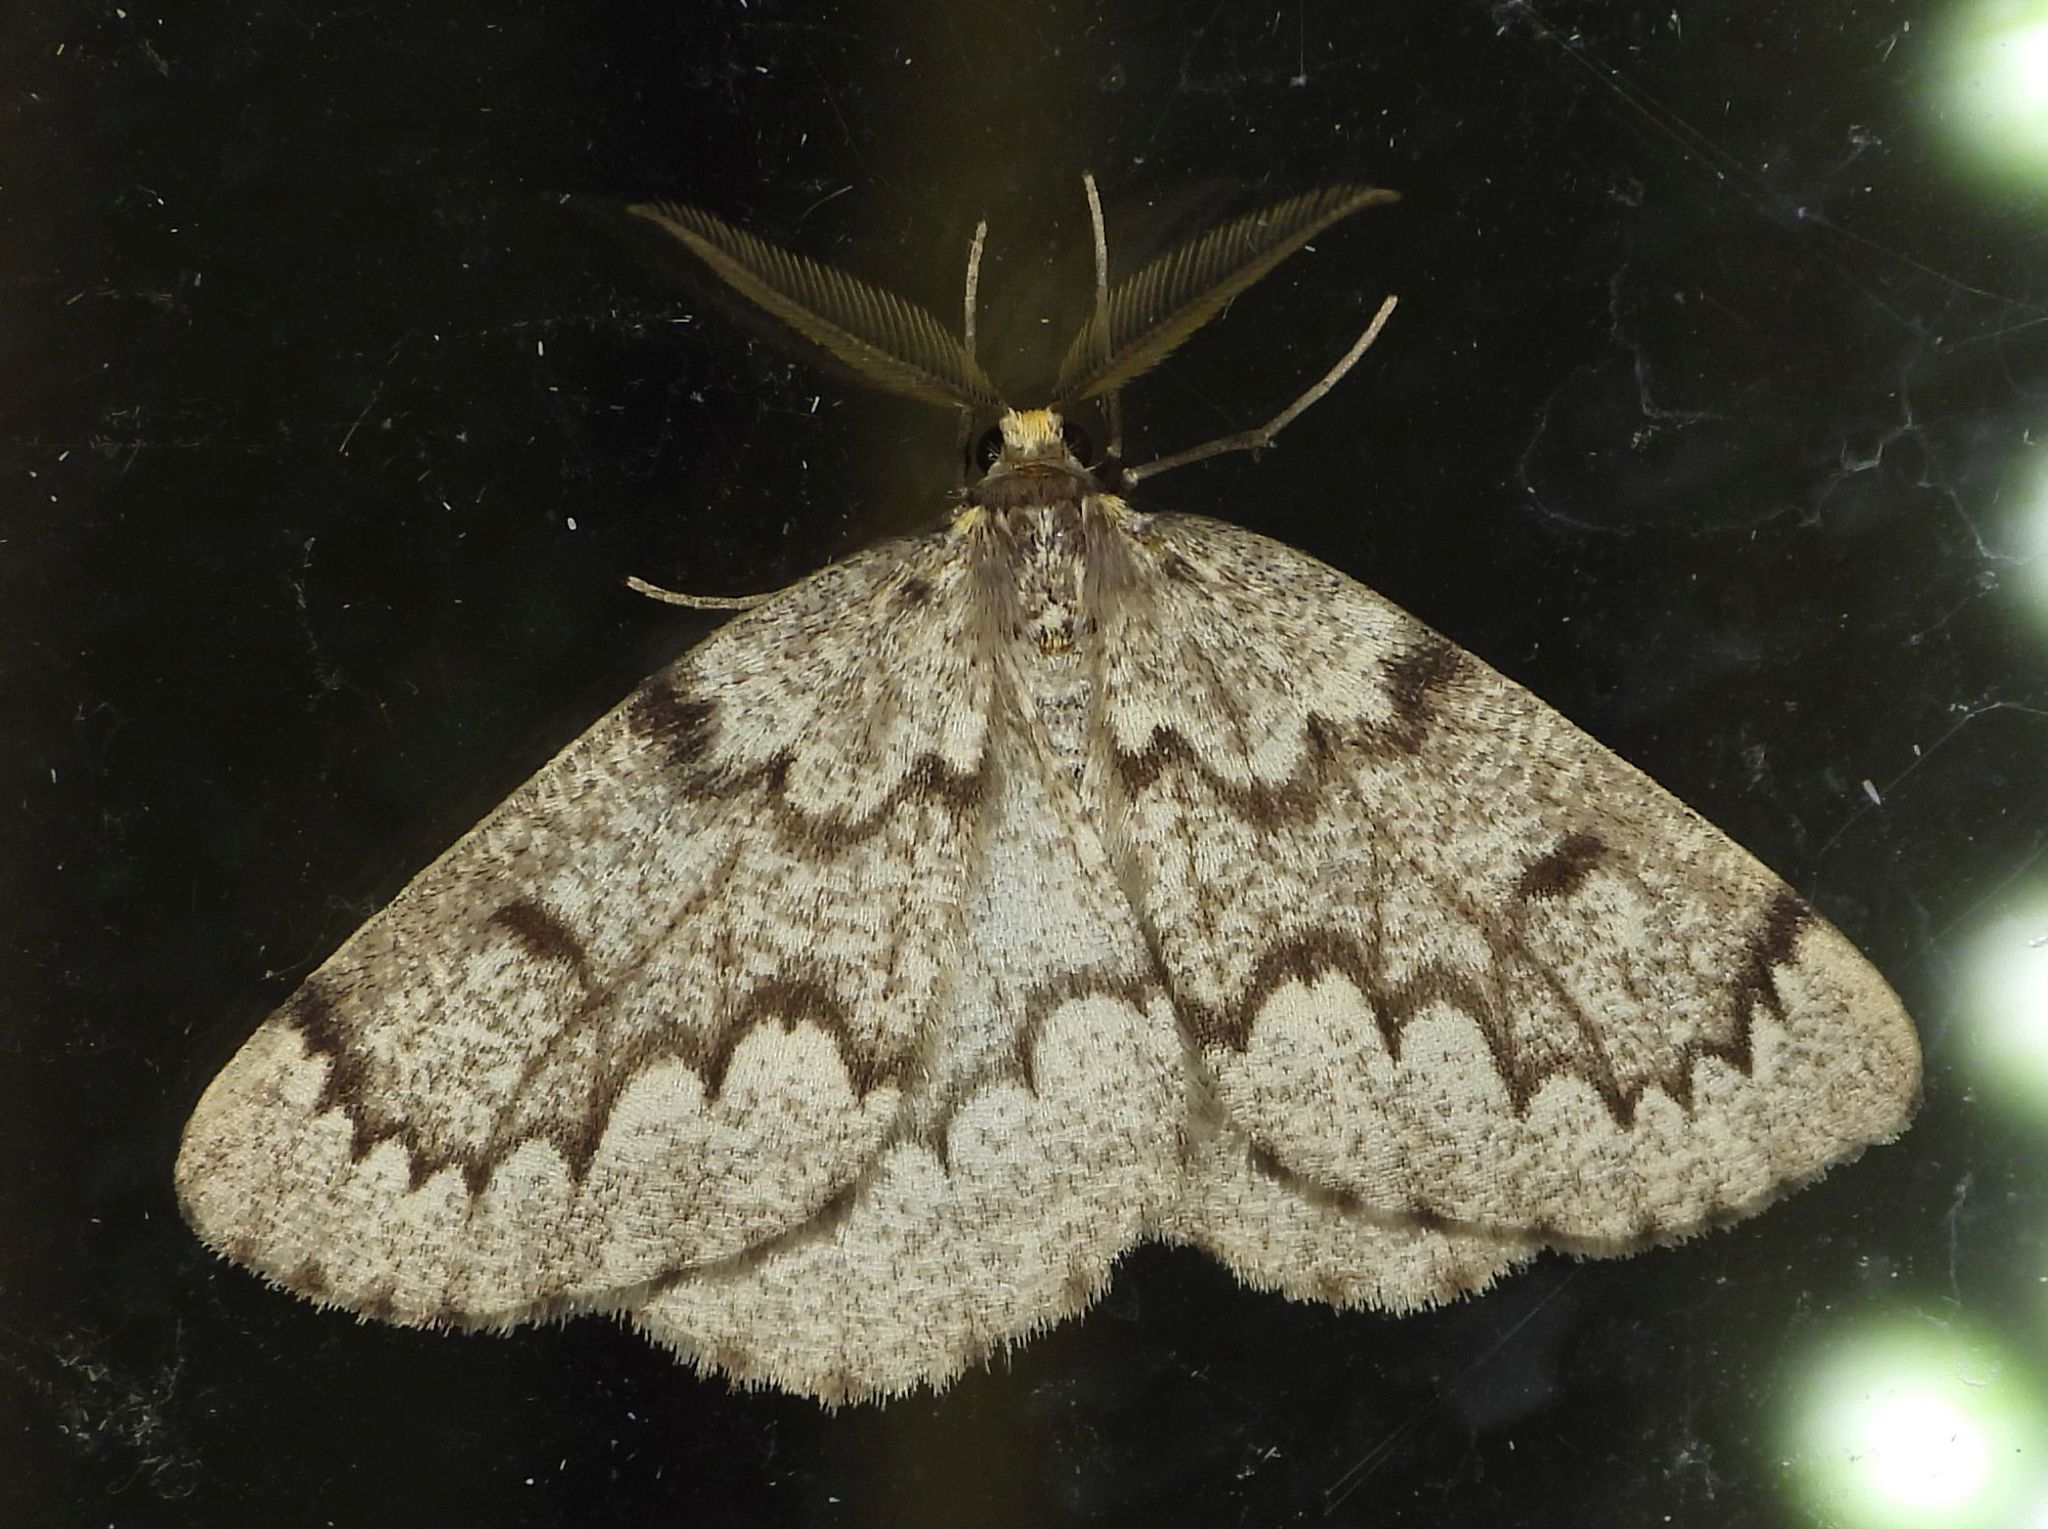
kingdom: Animalia
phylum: Arthropoda
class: Insecta
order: Lepidoptera
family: Geometridae
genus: Nepytia
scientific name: Nepytia canosaria
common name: False hemlock looper
